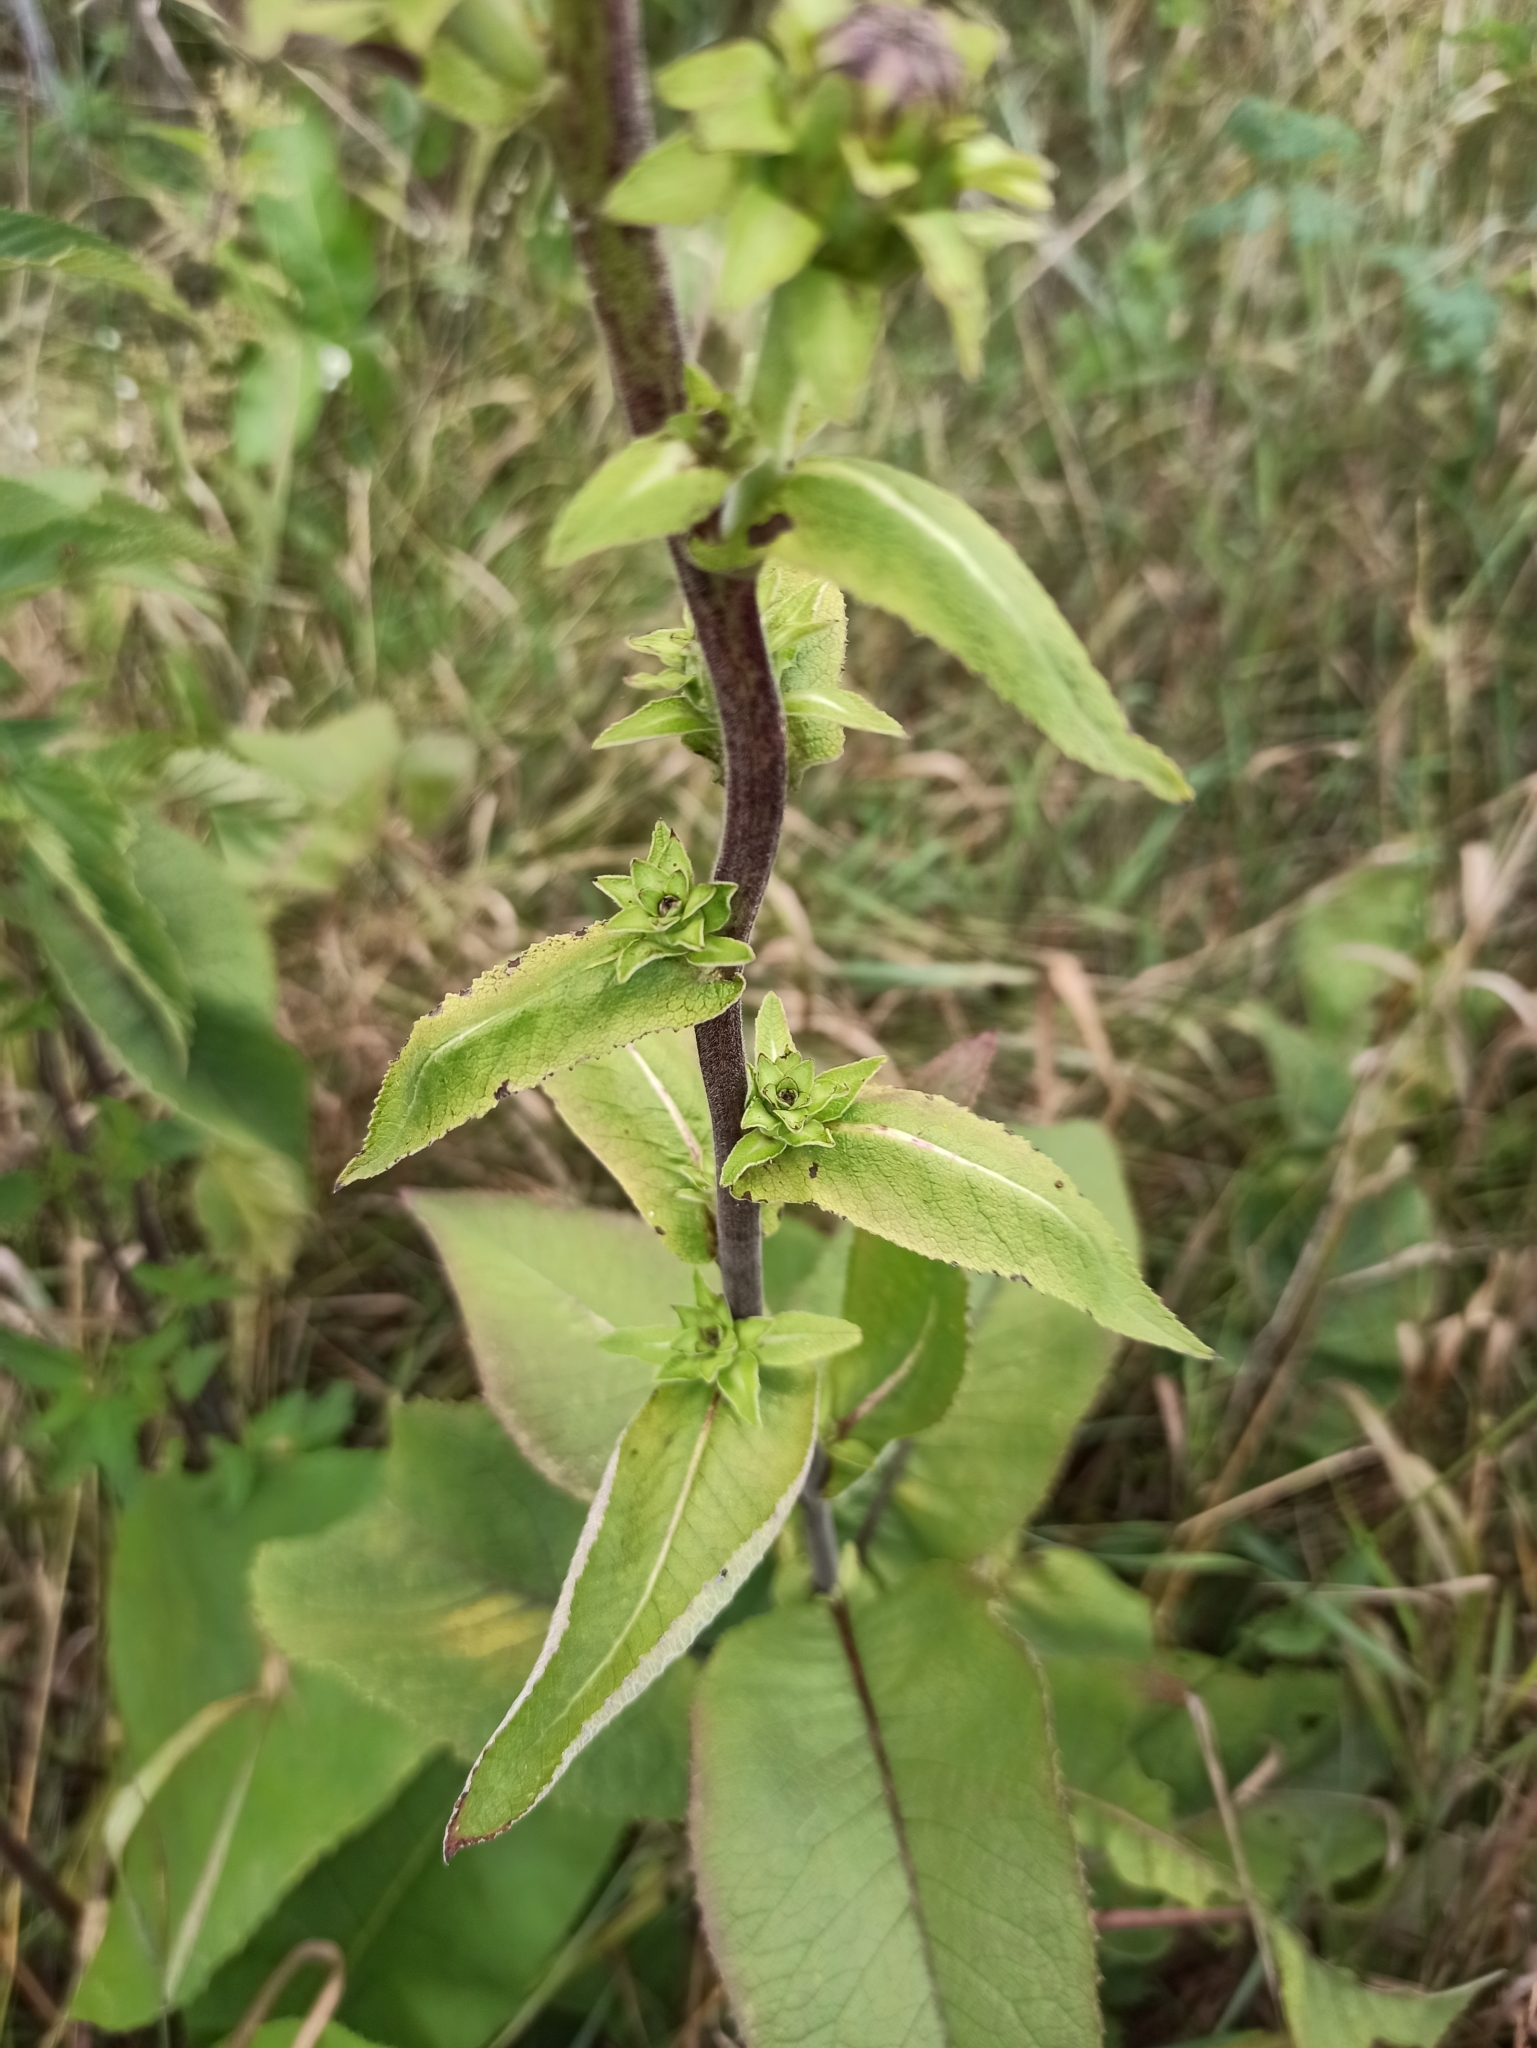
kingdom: Plantae
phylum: Tracheophyta
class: Magnoliopsida
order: Asterales
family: Asteraceae
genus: Inula
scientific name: Inula helenium
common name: Elecampane
